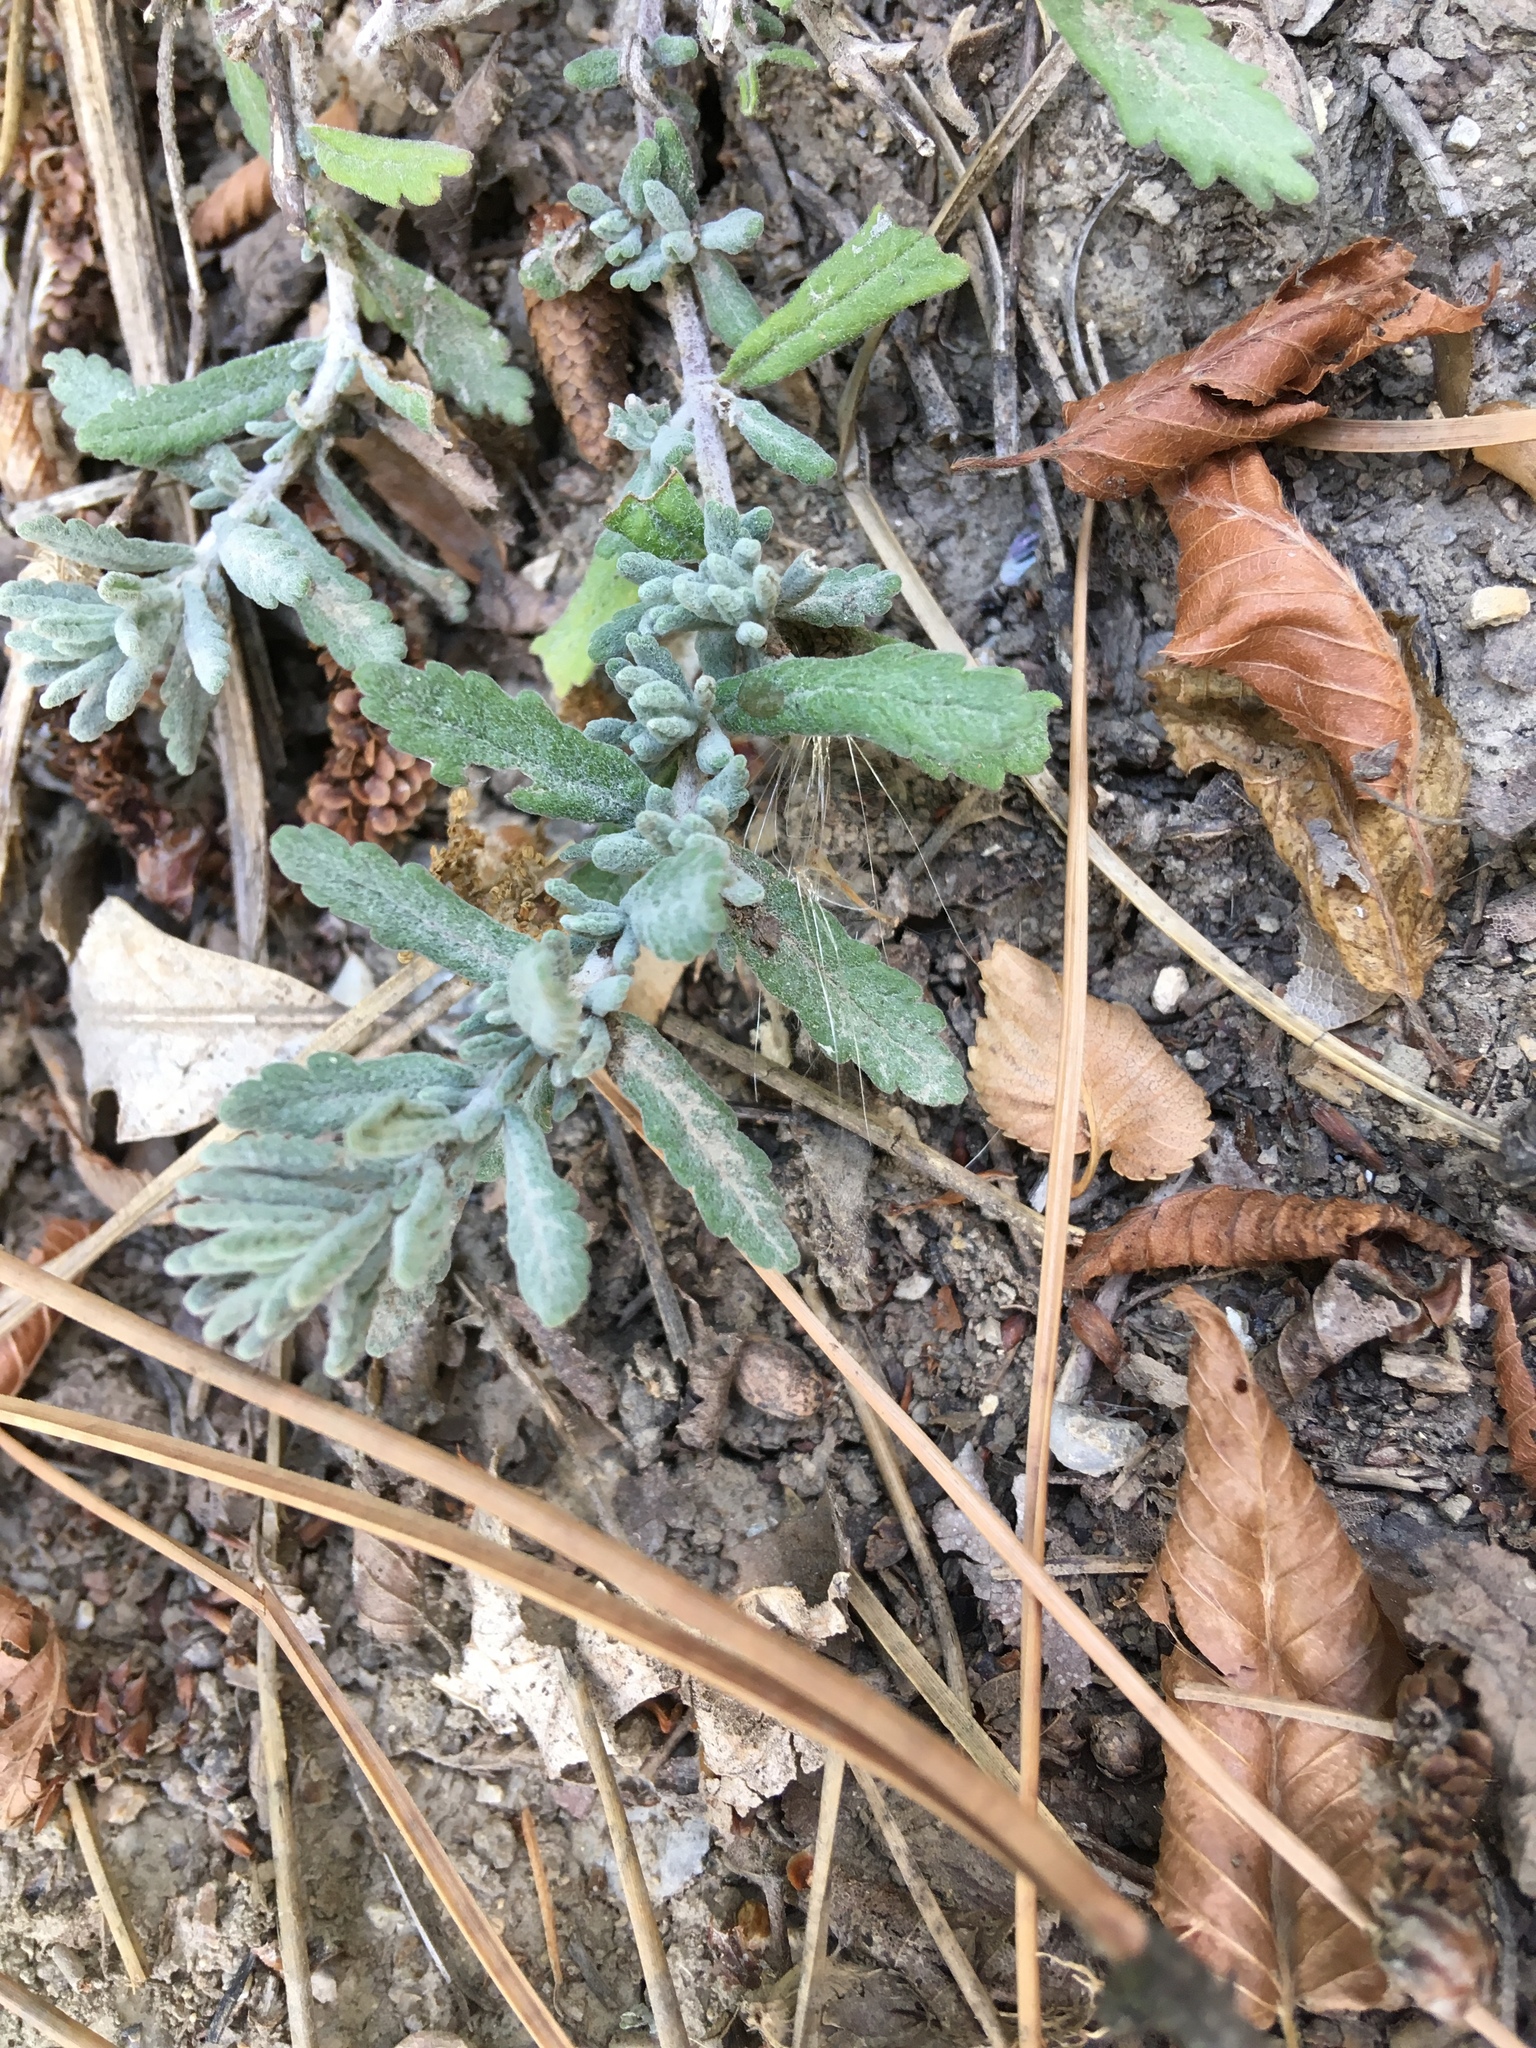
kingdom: Plantae
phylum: Tracheophyta
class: Magnoliopsida
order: Lamiales
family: Lamiaceae
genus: Teucrium
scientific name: Teucrium polium
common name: Poley
